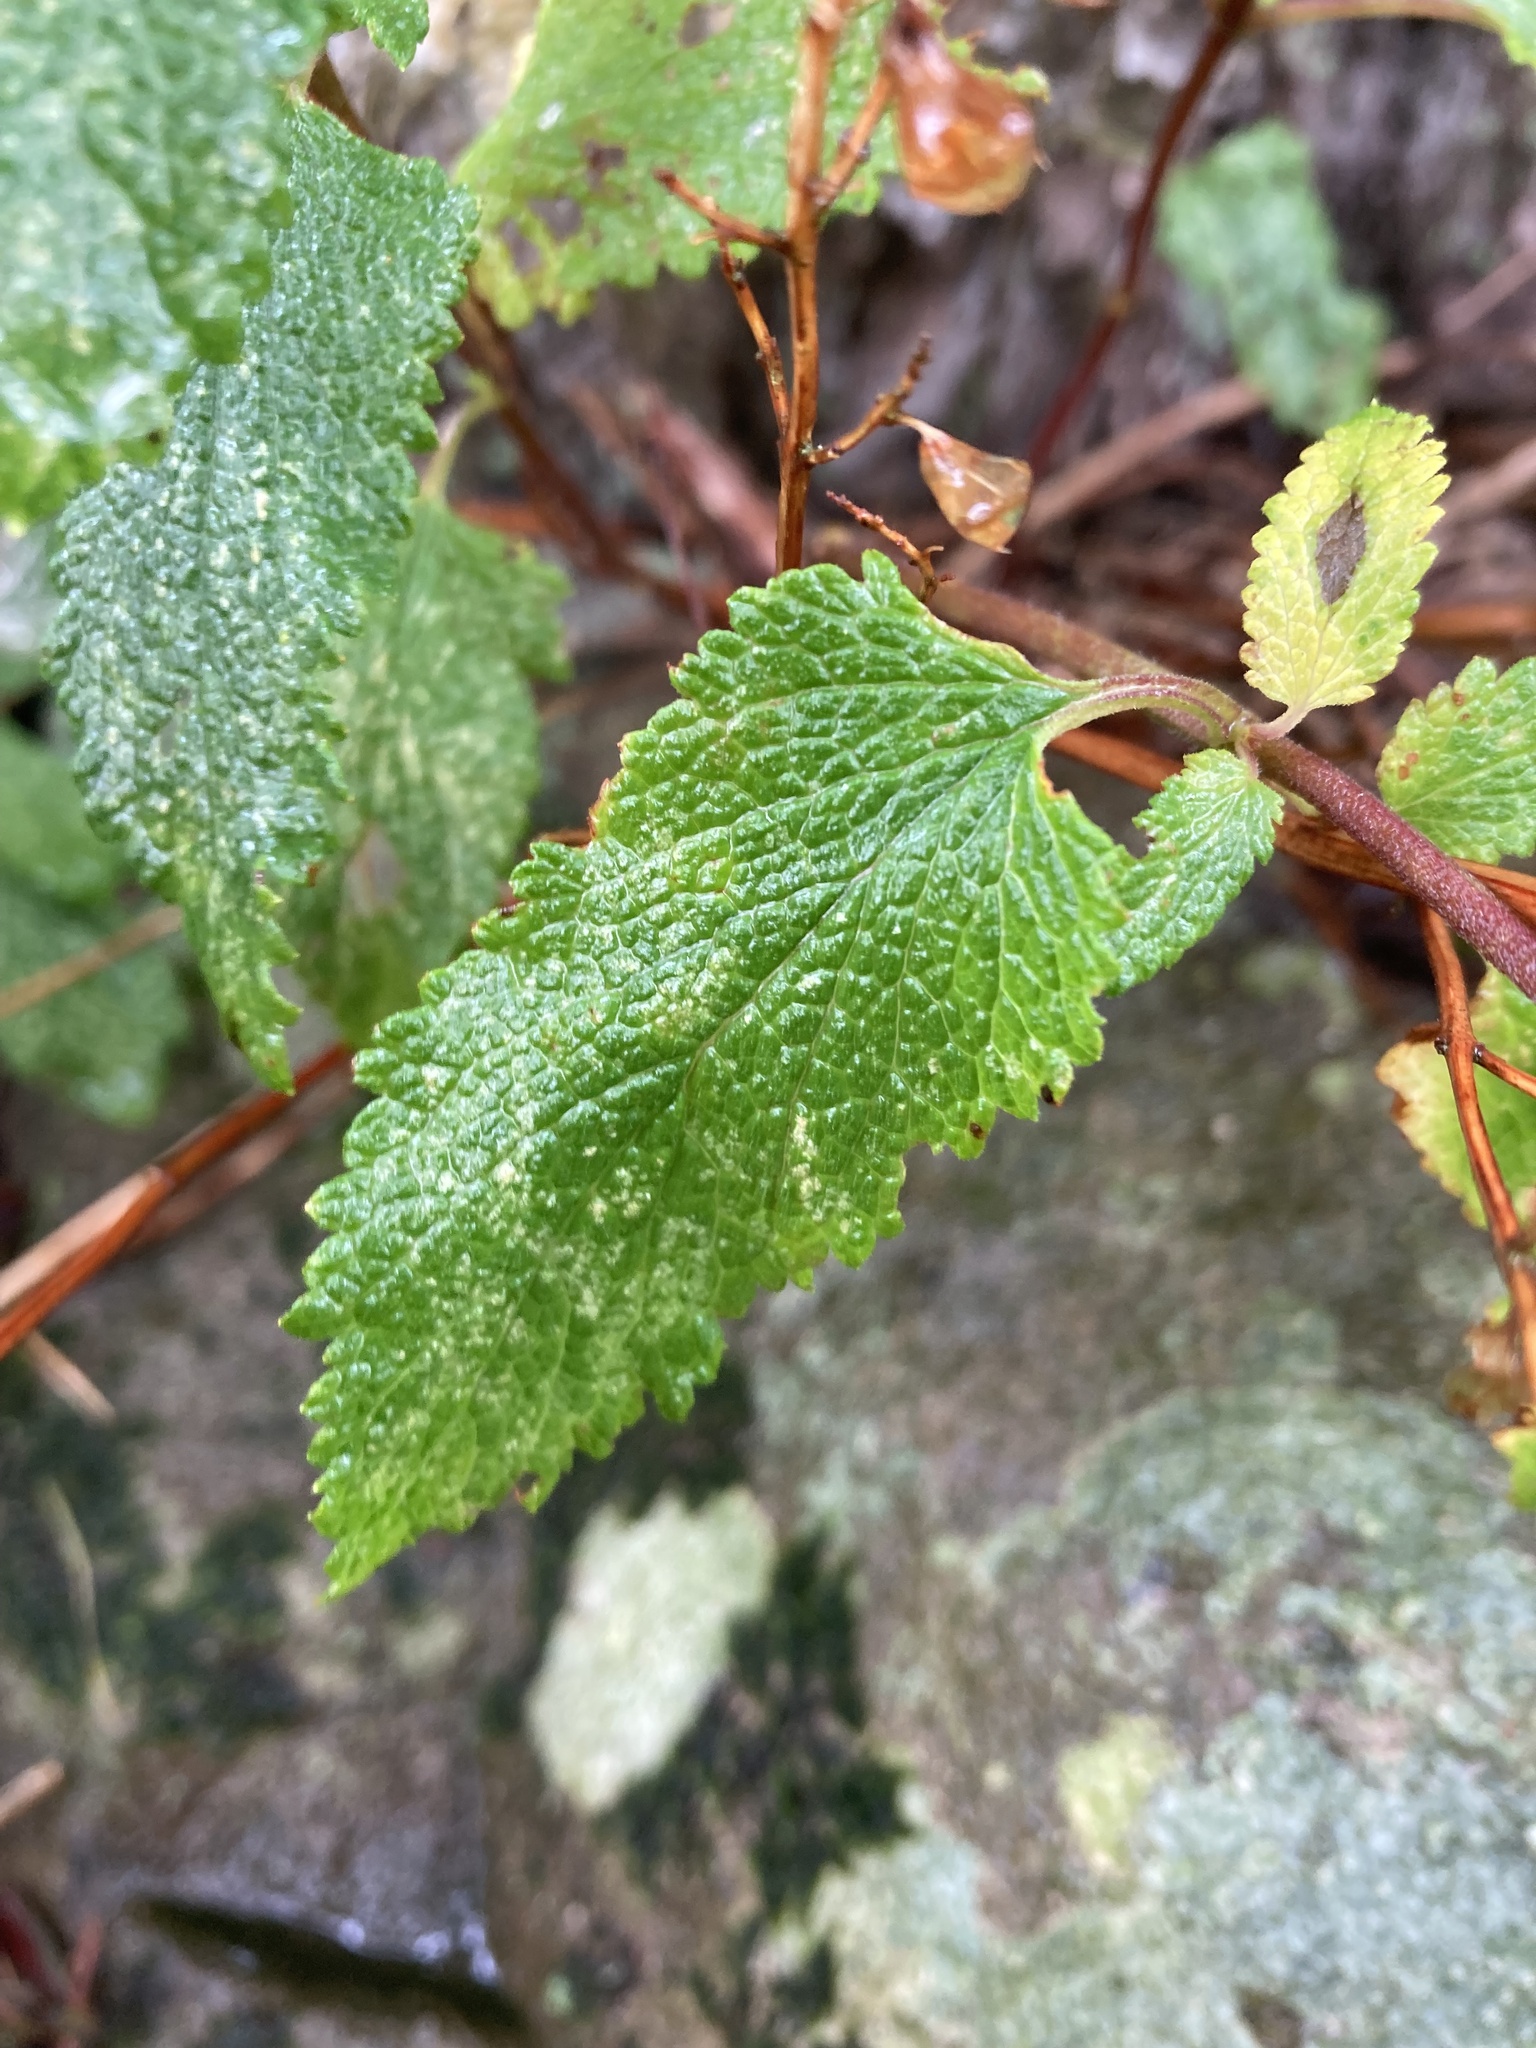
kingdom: Plantae
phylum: Tracheophyta
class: Magnoliopsida
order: Lamiales
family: Lamiaceae
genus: Teucrium
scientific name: Teucrium scorodonia
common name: Woodland germander
